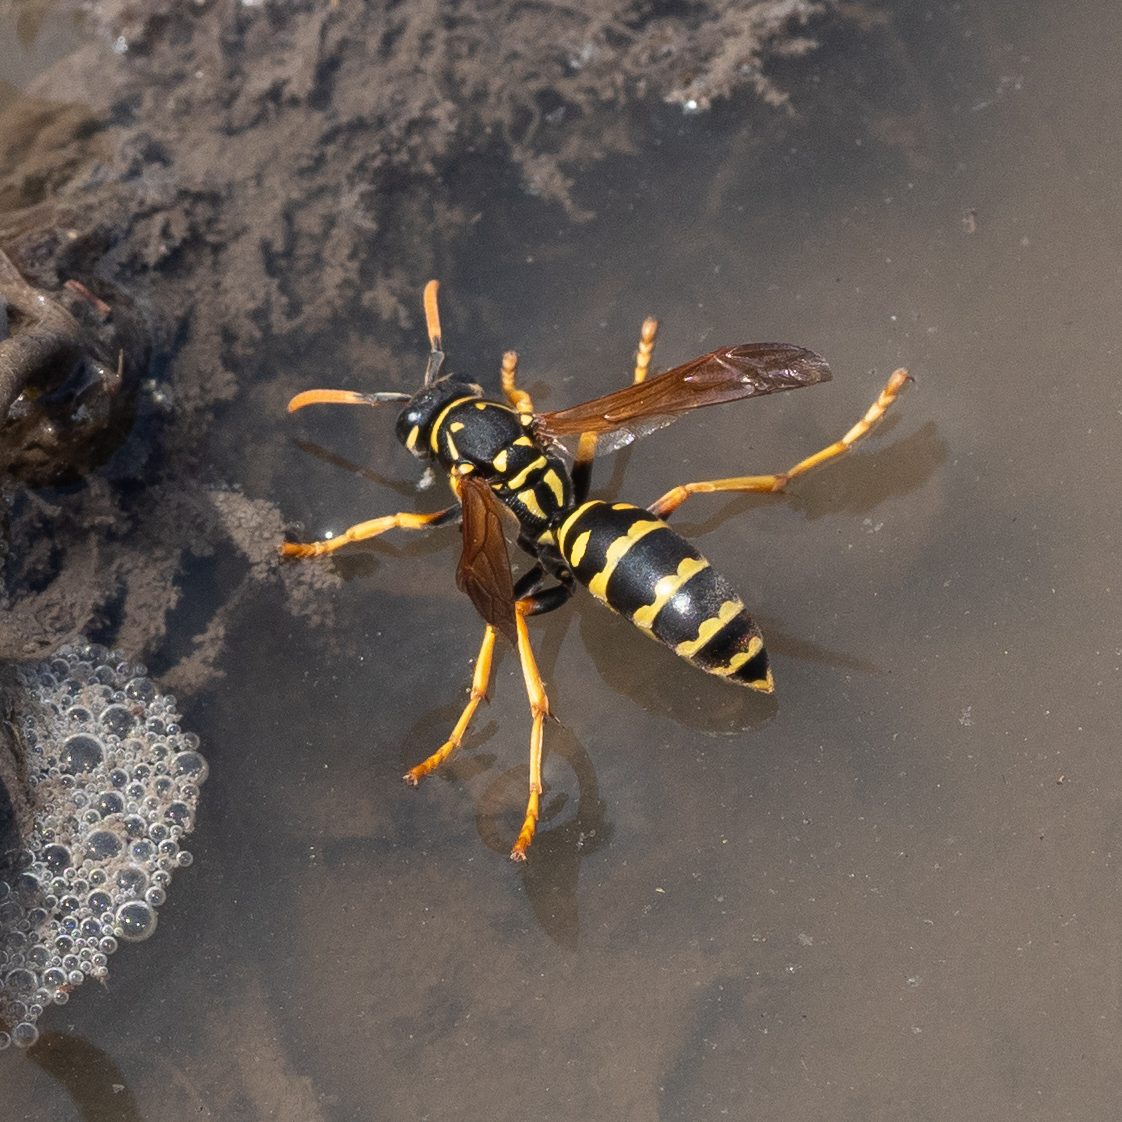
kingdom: Animalia
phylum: Arthropoda
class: Insecta
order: Hymenoptera
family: Eumenidae
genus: Polistes
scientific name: Polistes dominula
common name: Paper wasp
